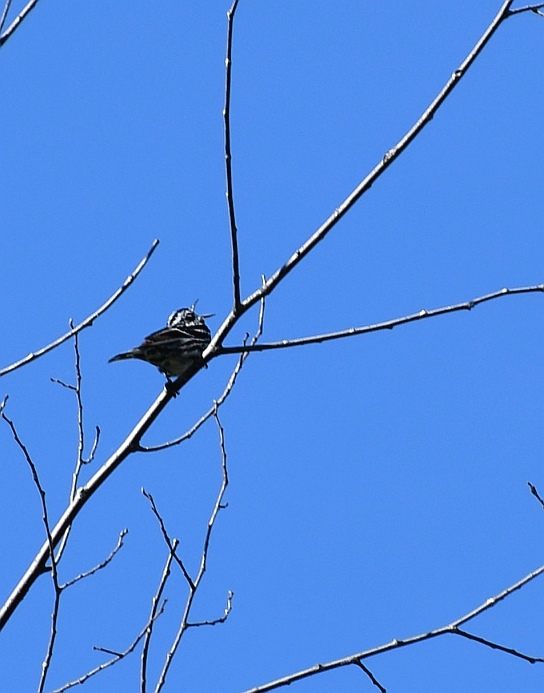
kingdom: Animalia
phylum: Chordata
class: Aves
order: Passeriformes
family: Parulidae
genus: Mniotilta
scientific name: Mniotilta varia
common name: Black-and-white warbler
